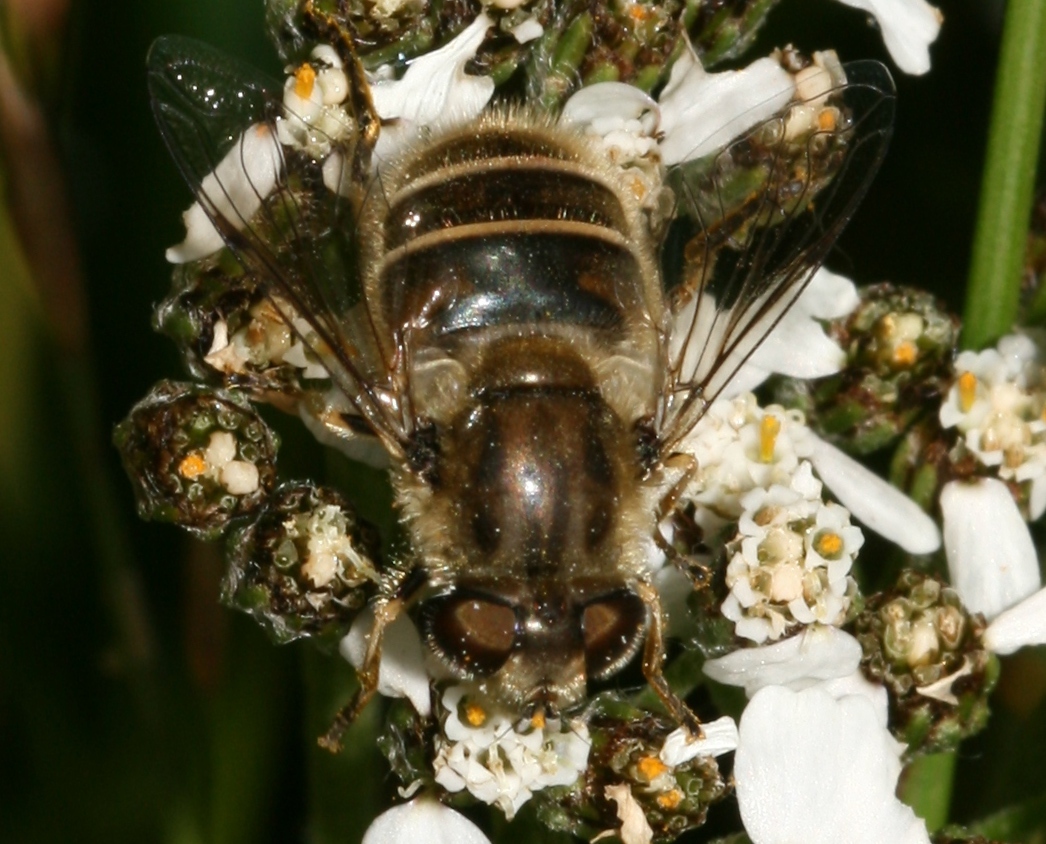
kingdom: Animalia
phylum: Arthropoda
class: Insecta
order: Diptera
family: Syrphidae
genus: Eoseristalis
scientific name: Eoseristalis
